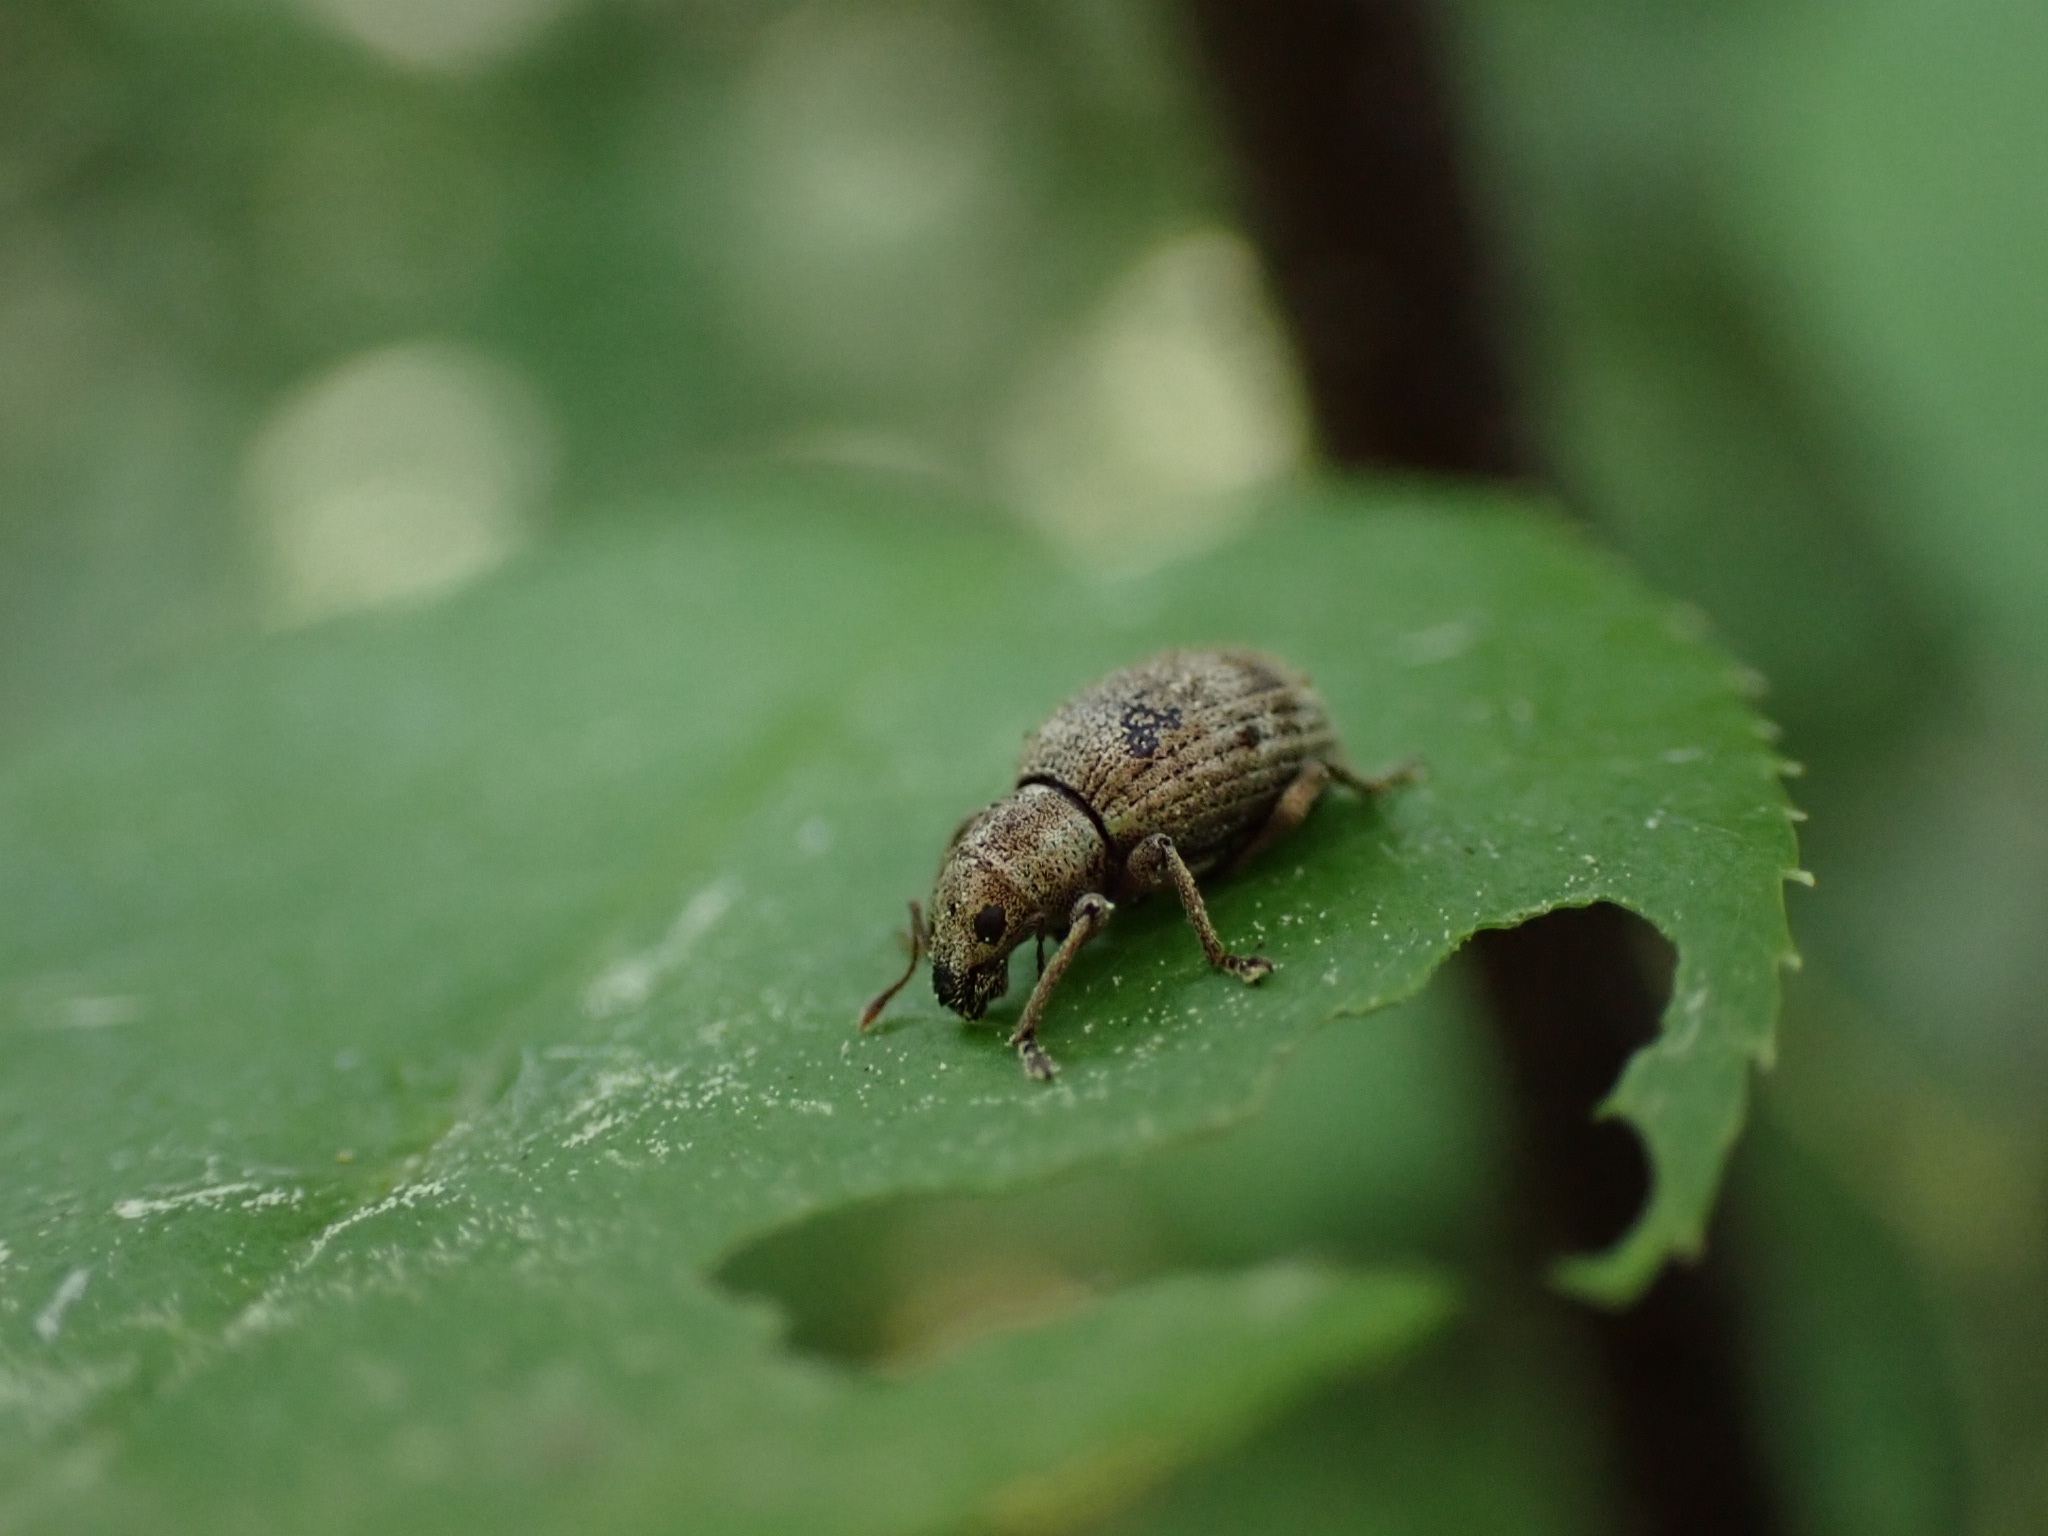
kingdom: Animalia
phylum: Arthropoda
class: Insecta
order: Coleoptera
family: Curculionidae
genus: Sciaphilus
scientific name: Sciaphilus asperatus
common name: Weevil
